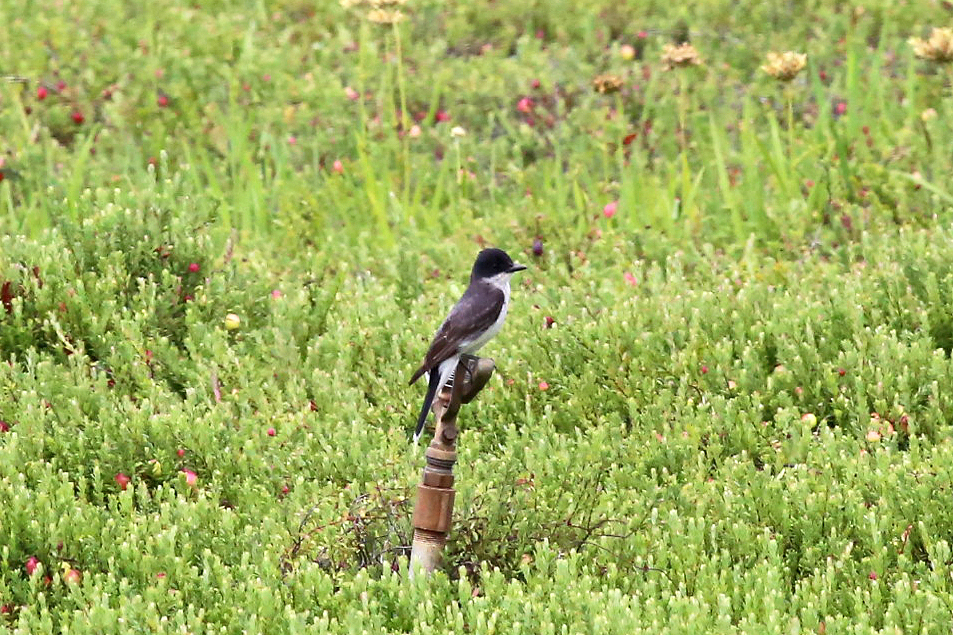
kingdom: Animalia
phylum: Chordata
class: Aves
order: Passeriformes
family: Tyrannidae
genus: Tyrannus
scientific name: Tyrannus tyrannus
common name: Eastern kingbird
